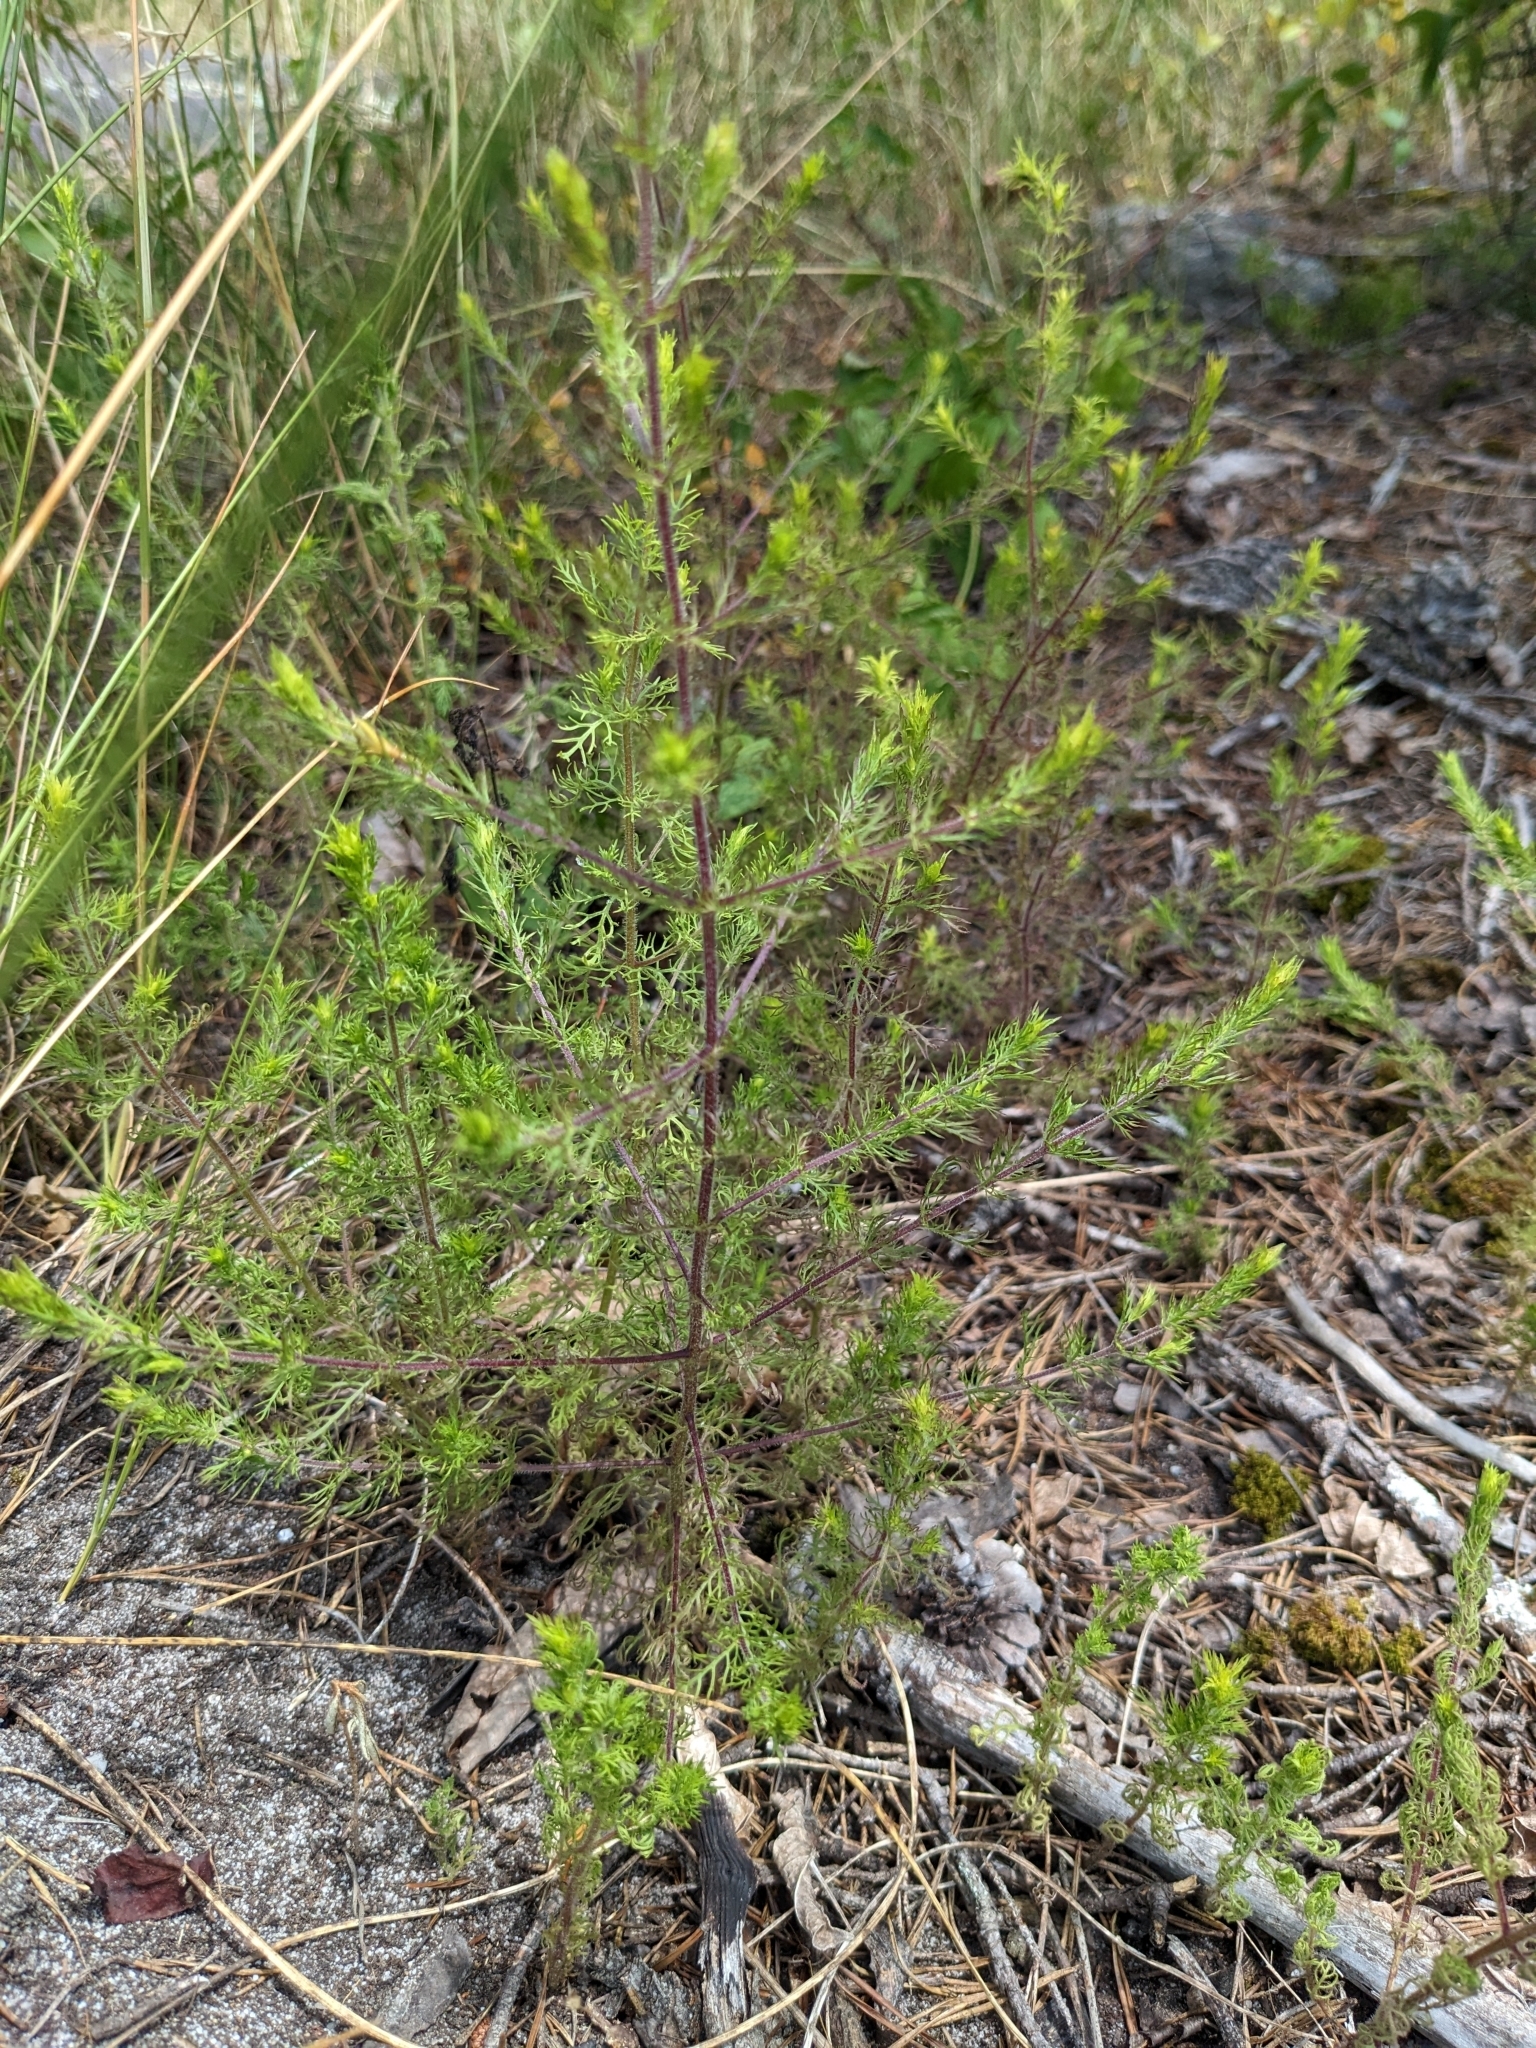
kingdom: Plantae
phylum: Tracheophyta
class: Magnoliopsida
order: Lamiales
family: Orobanchaceae
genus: Seymeria
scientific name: Seymeria cassioides
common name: Yaupon black-senna
